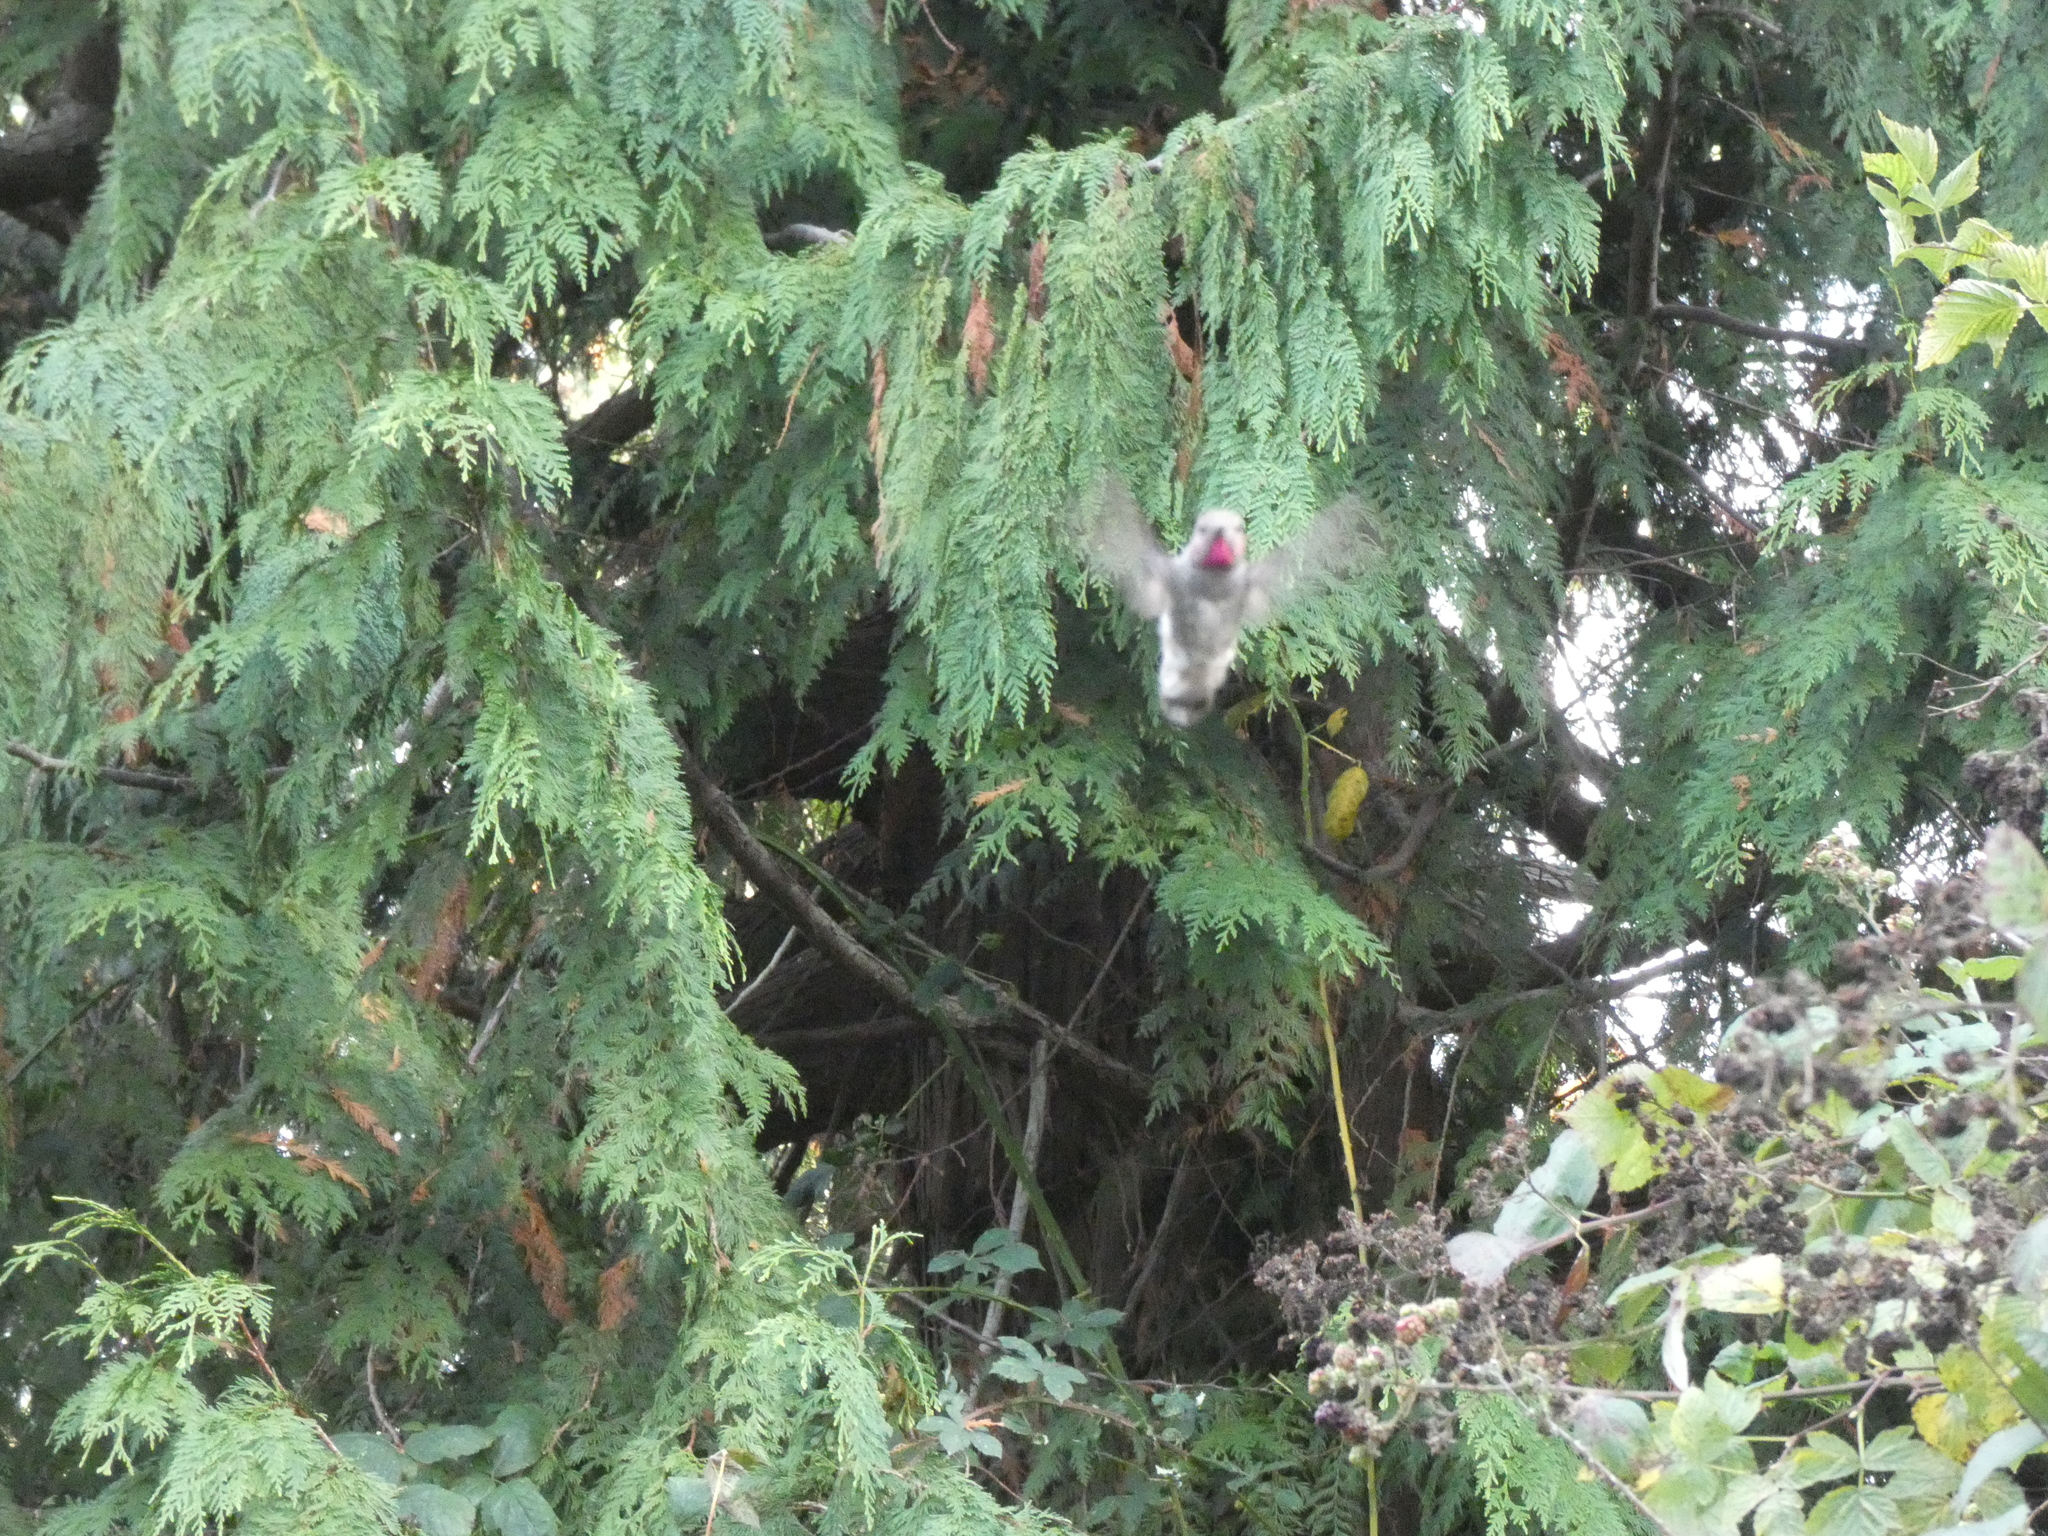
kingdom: Animalia
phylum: Chordata
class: Aves
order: Apodiformes
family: Trochilidae
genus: Calypte
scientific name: Calypte anna
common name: Anna's hummingbird
